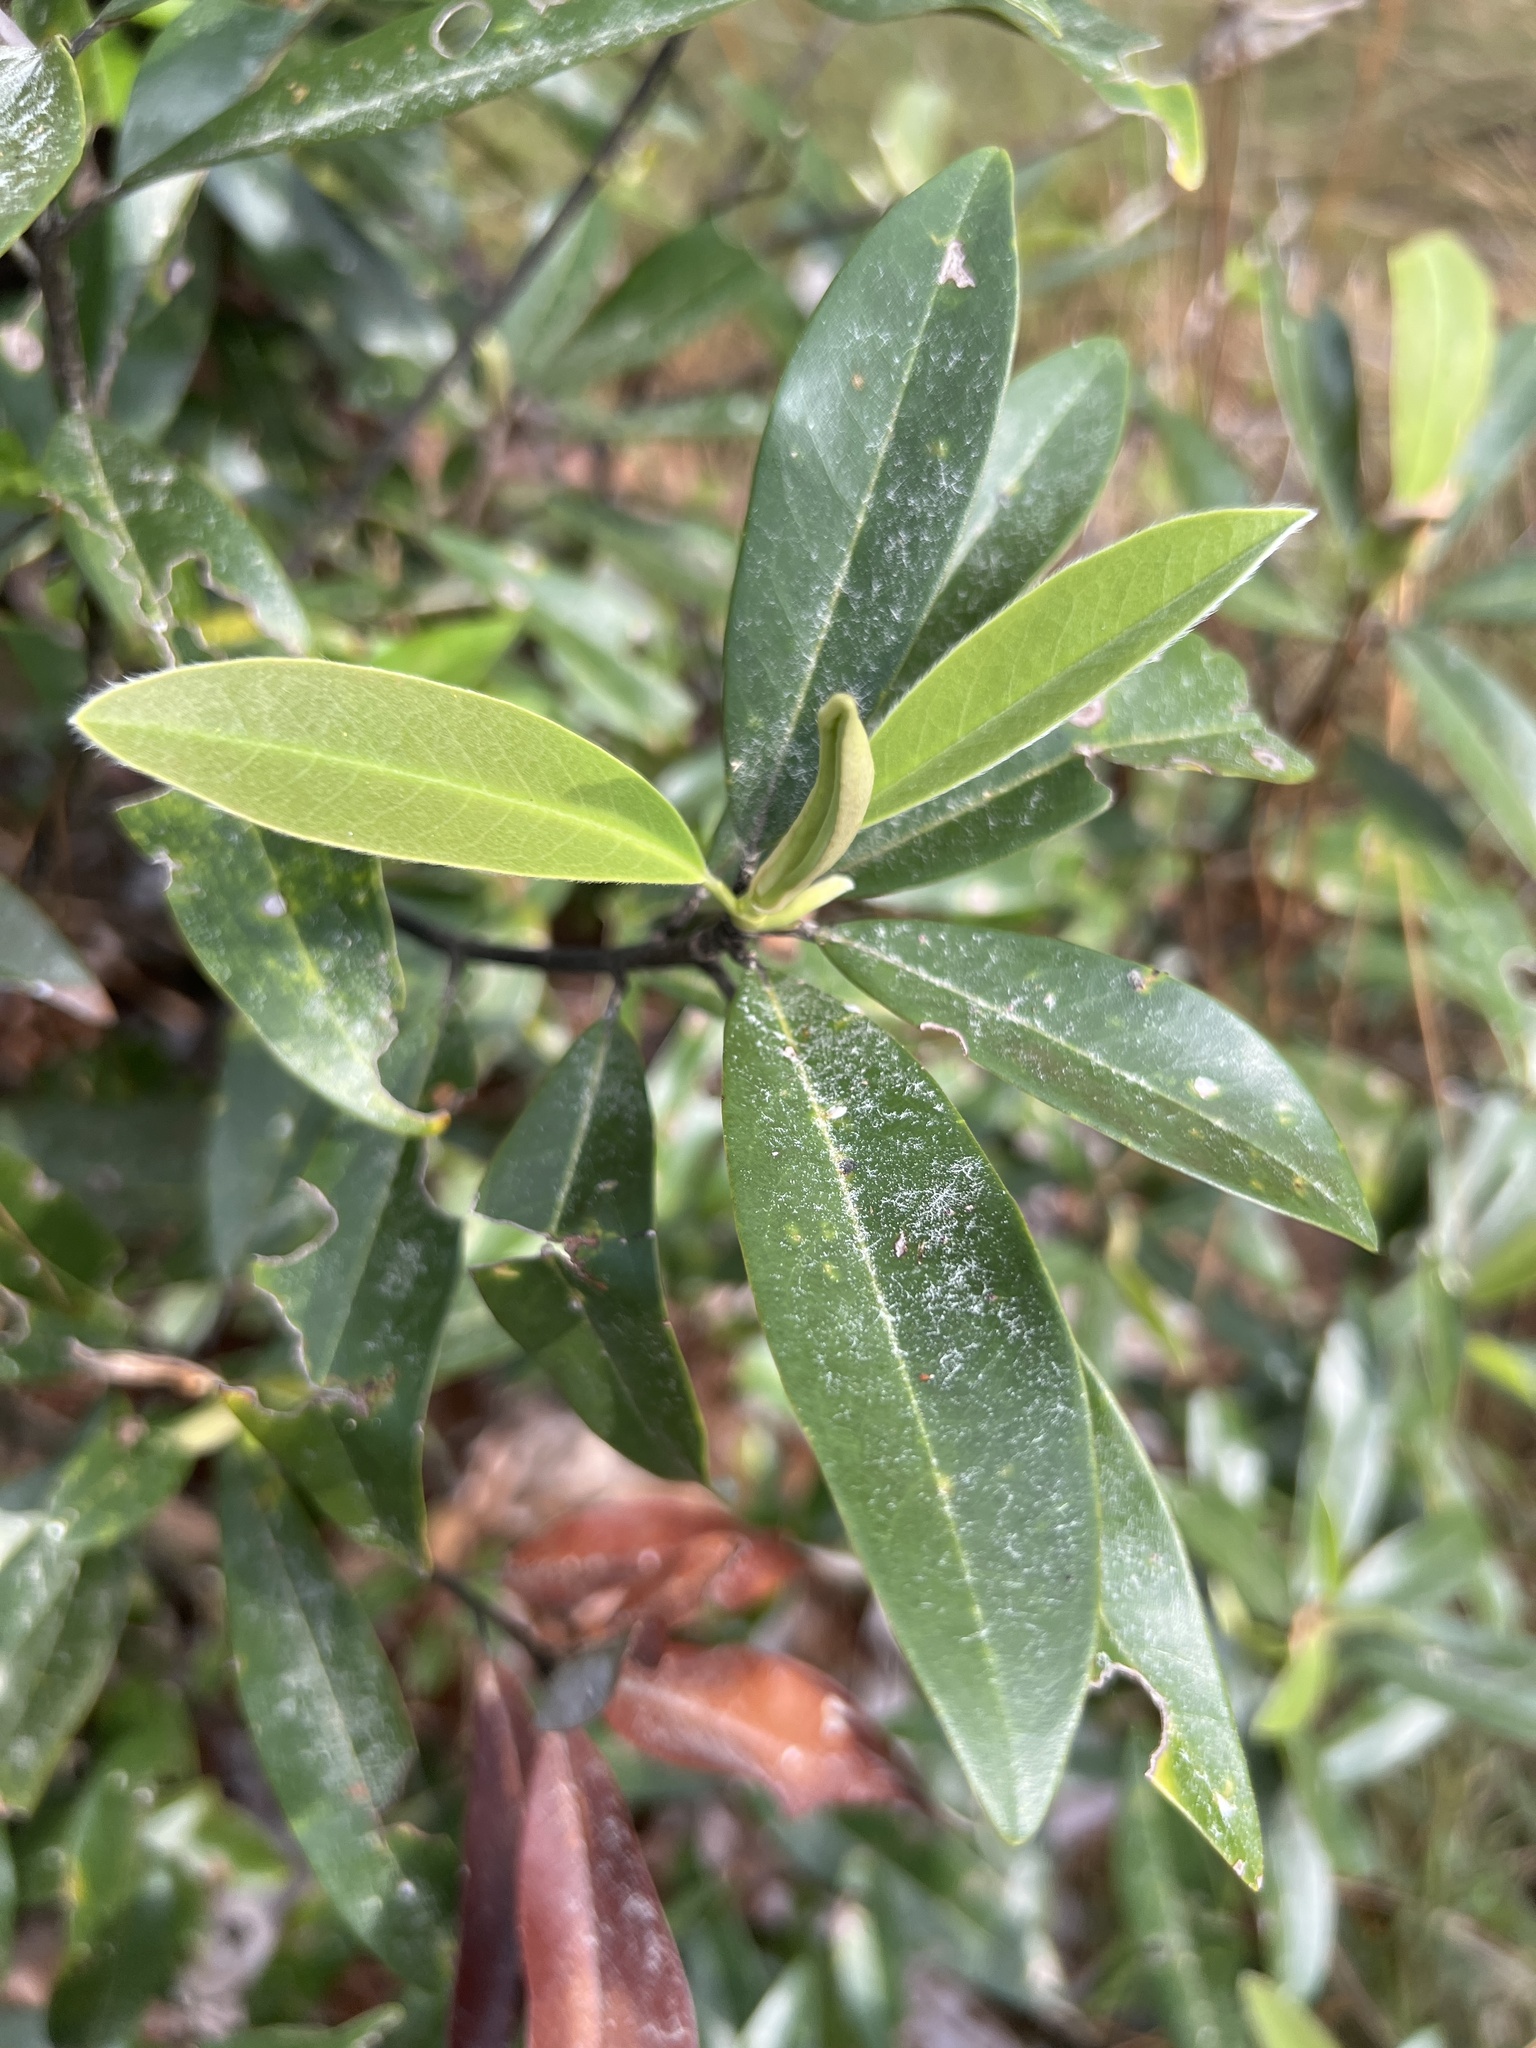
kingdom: Plantae
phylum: Tracheophyta
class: Magnoliopsida
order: Magnoliales
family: Magnoliaceae
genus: Magnolia
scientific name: Magnolia virginiana
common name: Swamp bay
